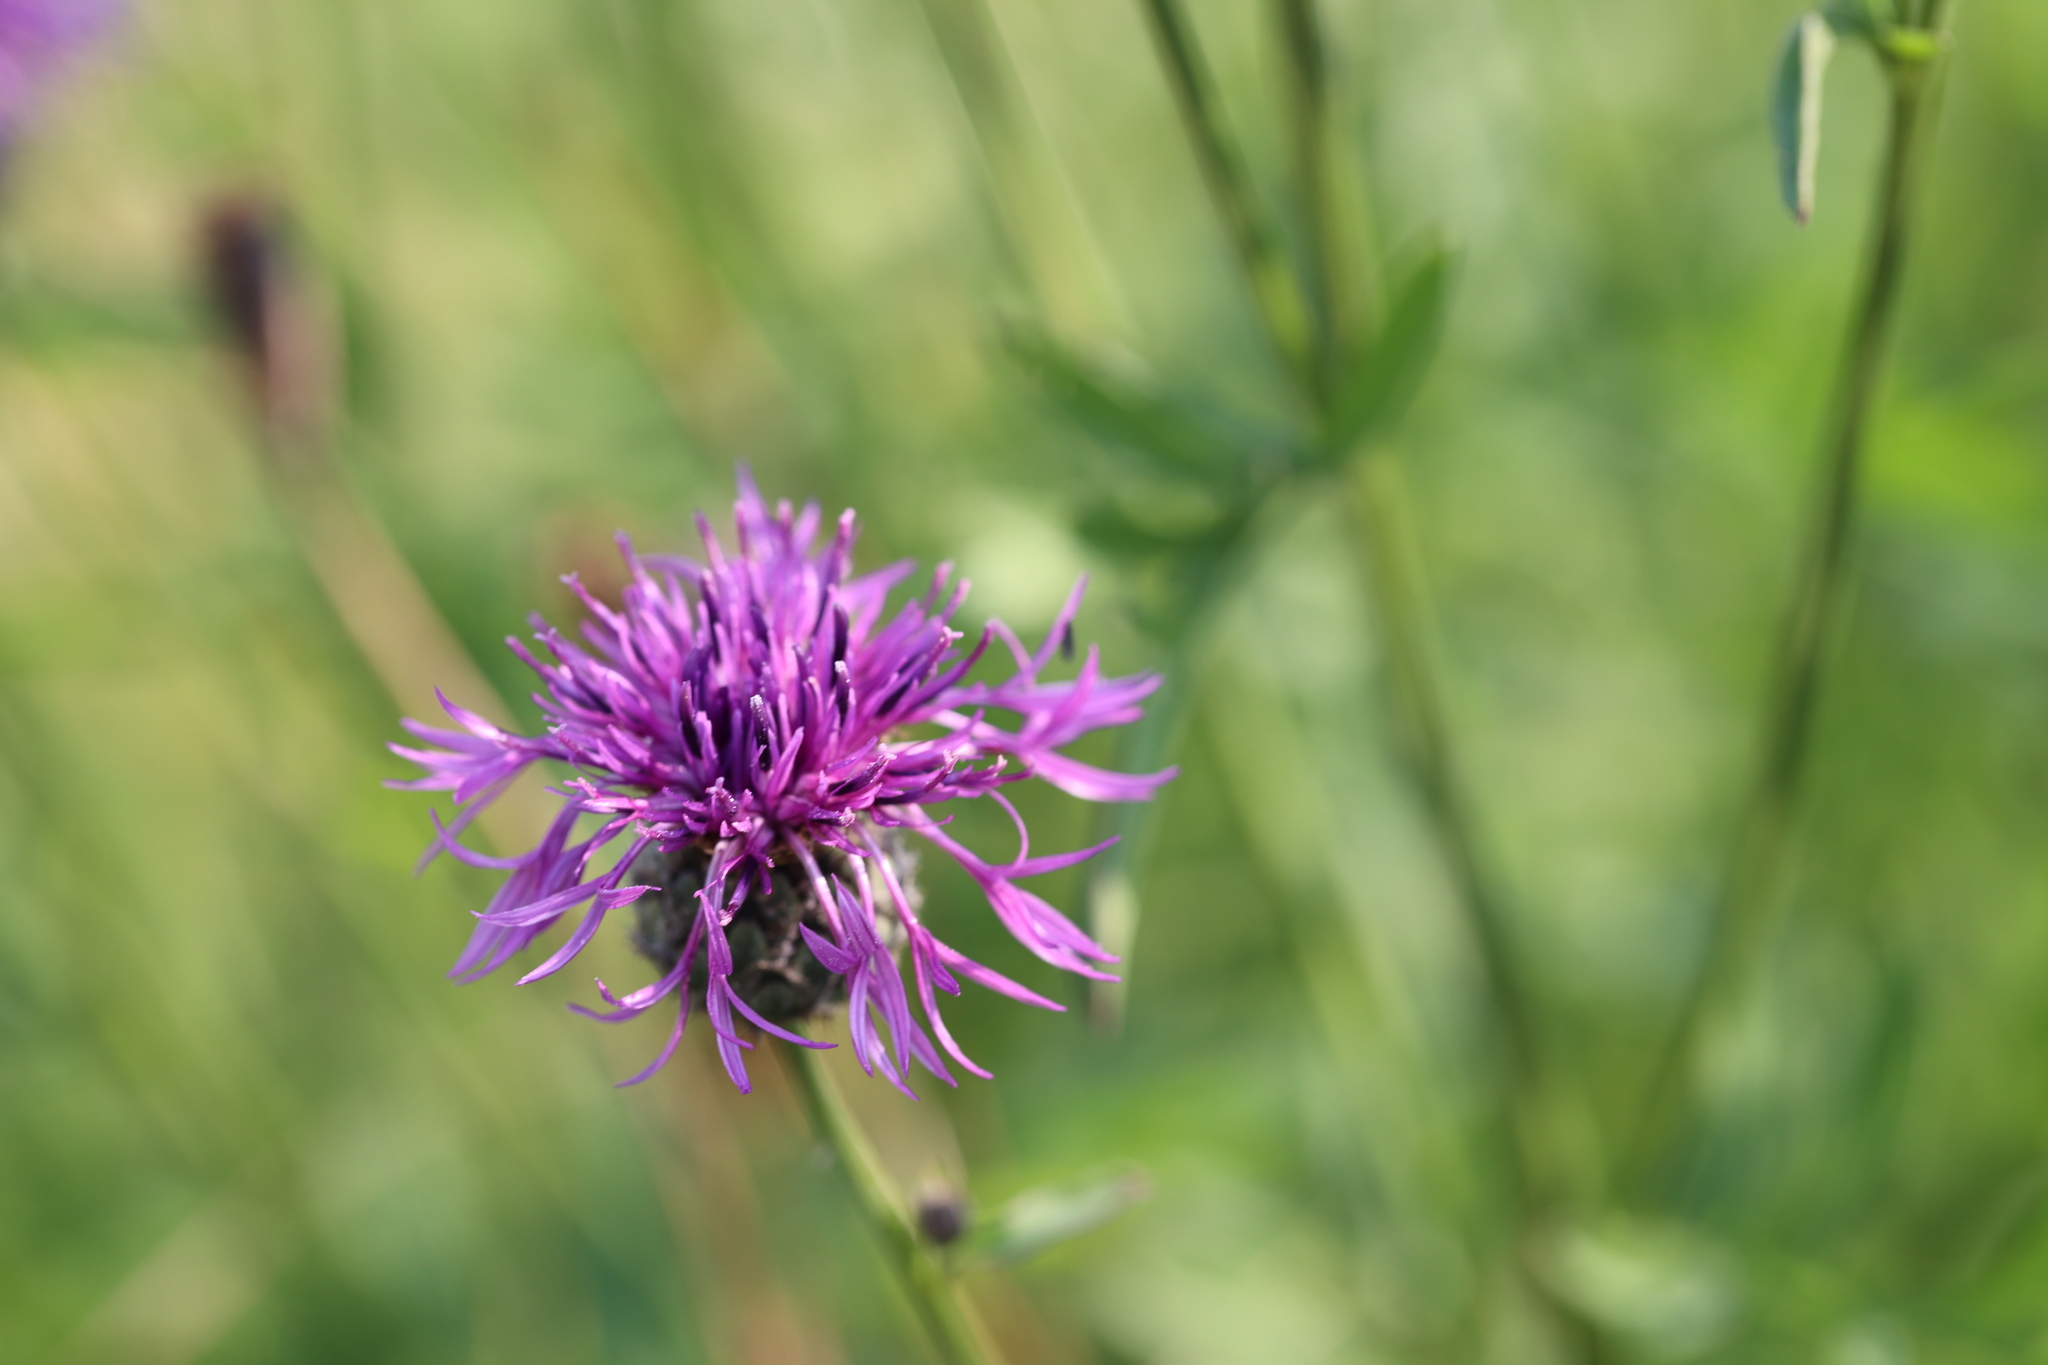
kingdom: Plantae
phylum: Tracheophyta
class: Magnoliopsida
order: Asterales
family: Asteraceae
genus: Centaurea
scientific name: Centaurea scabiosa
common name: Greater knapweed
